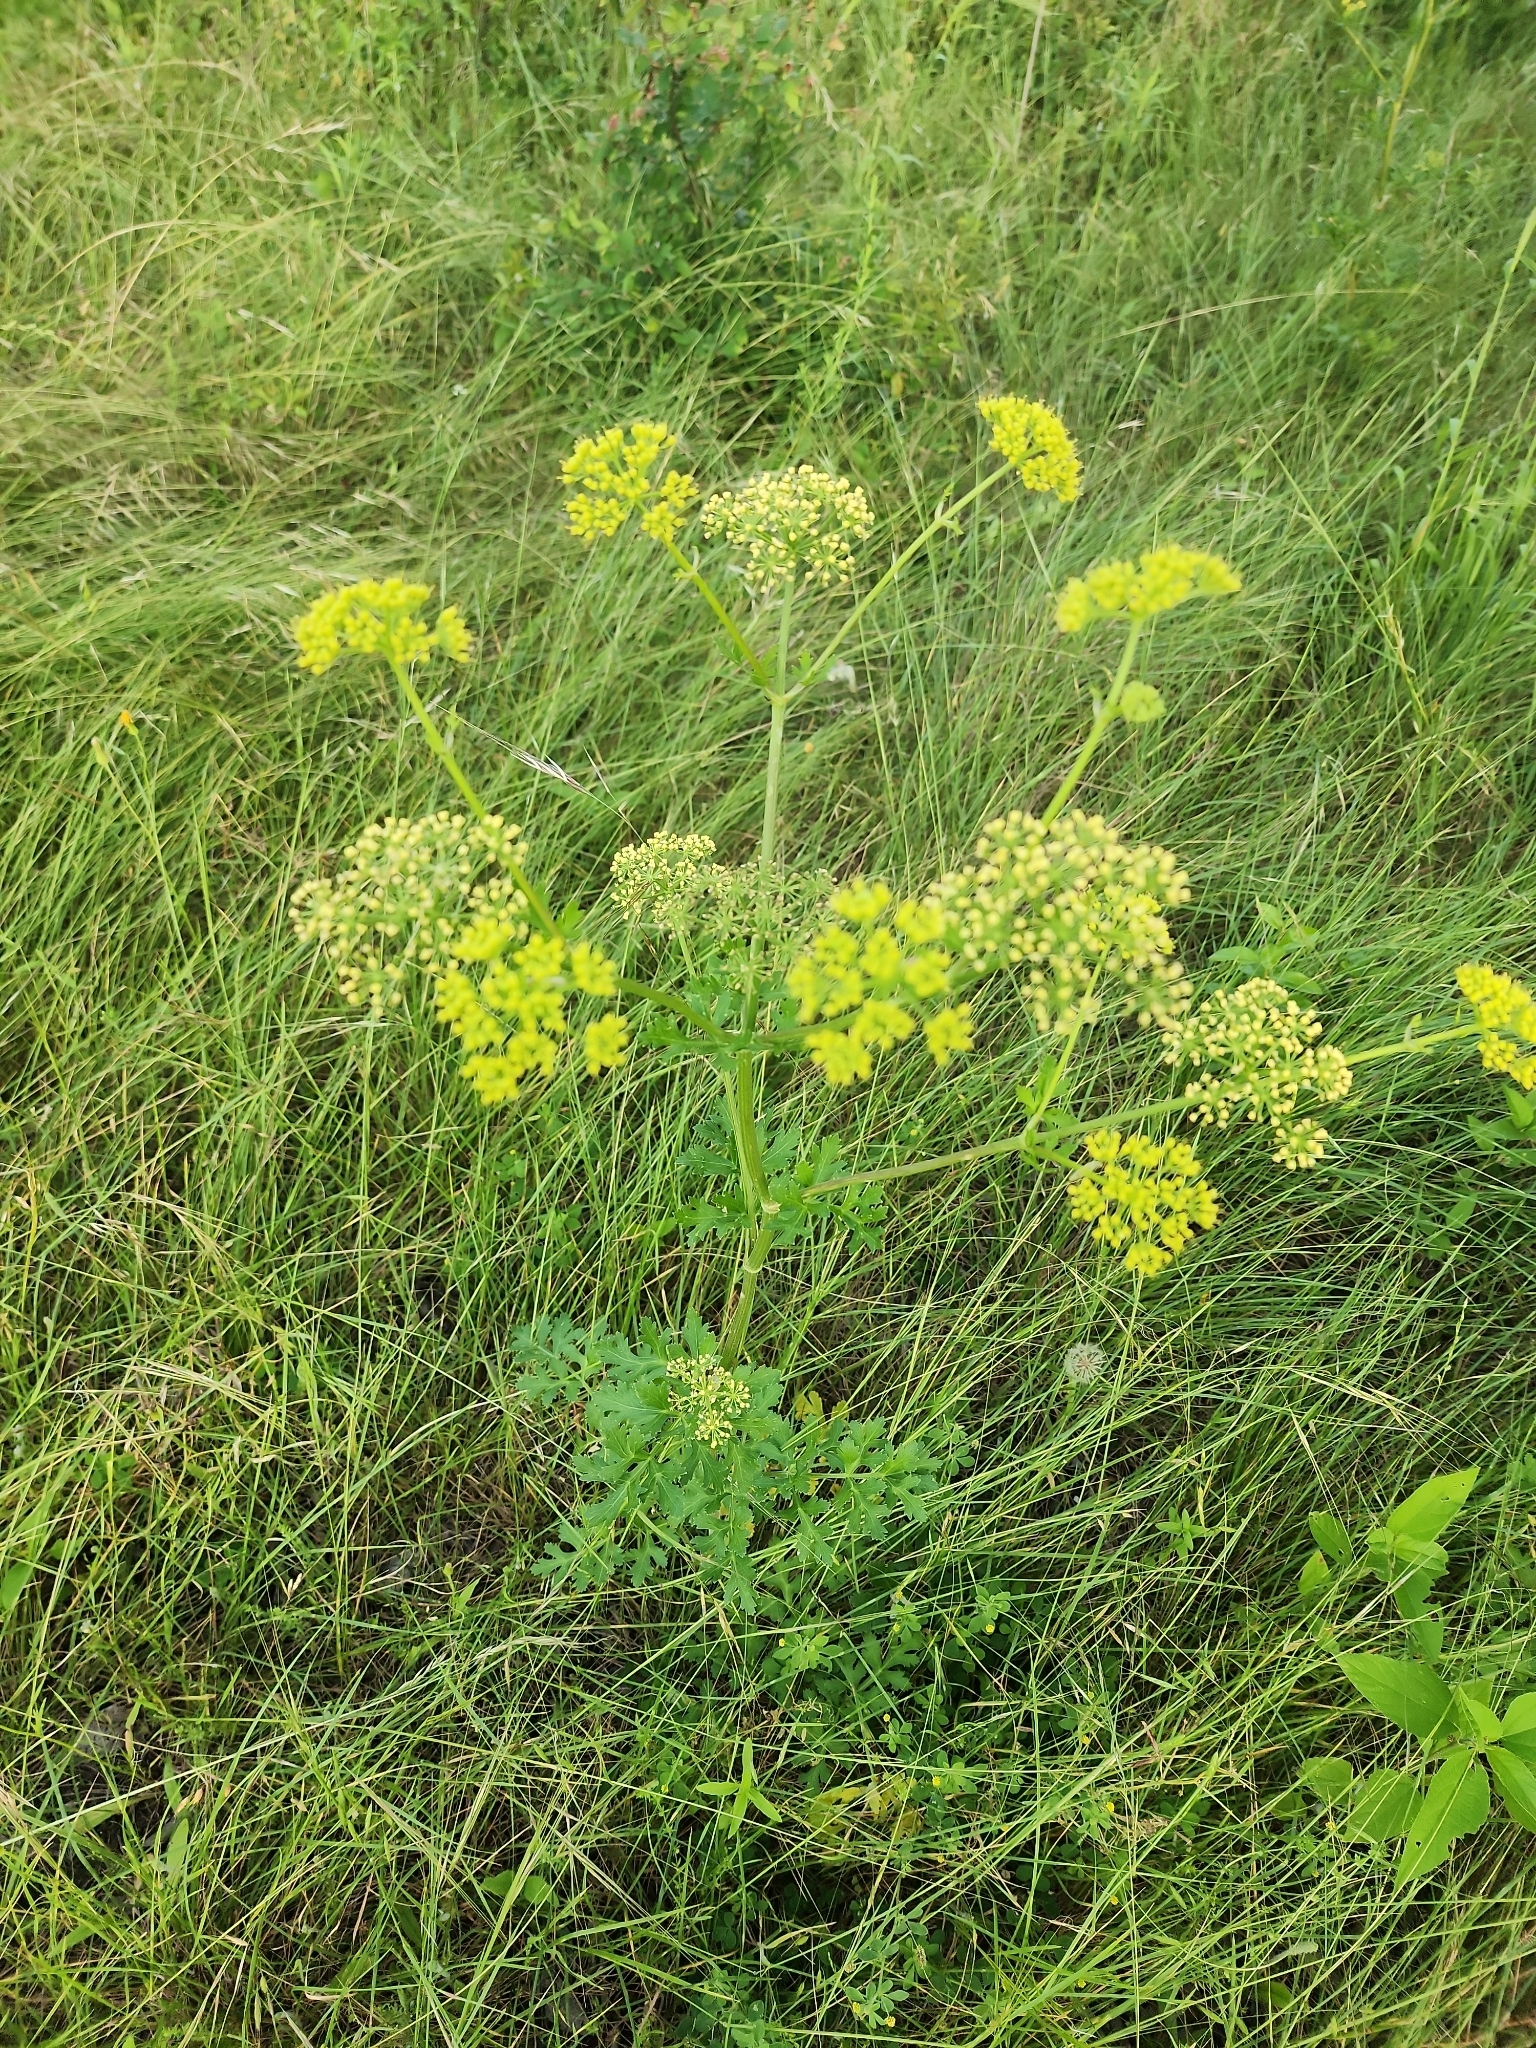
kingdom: Plantae
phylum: Tracheophyta
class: Magnoliopsida
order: Apiales
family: Apiaceae
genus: Polytaenia
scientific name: Polytaenia texana
